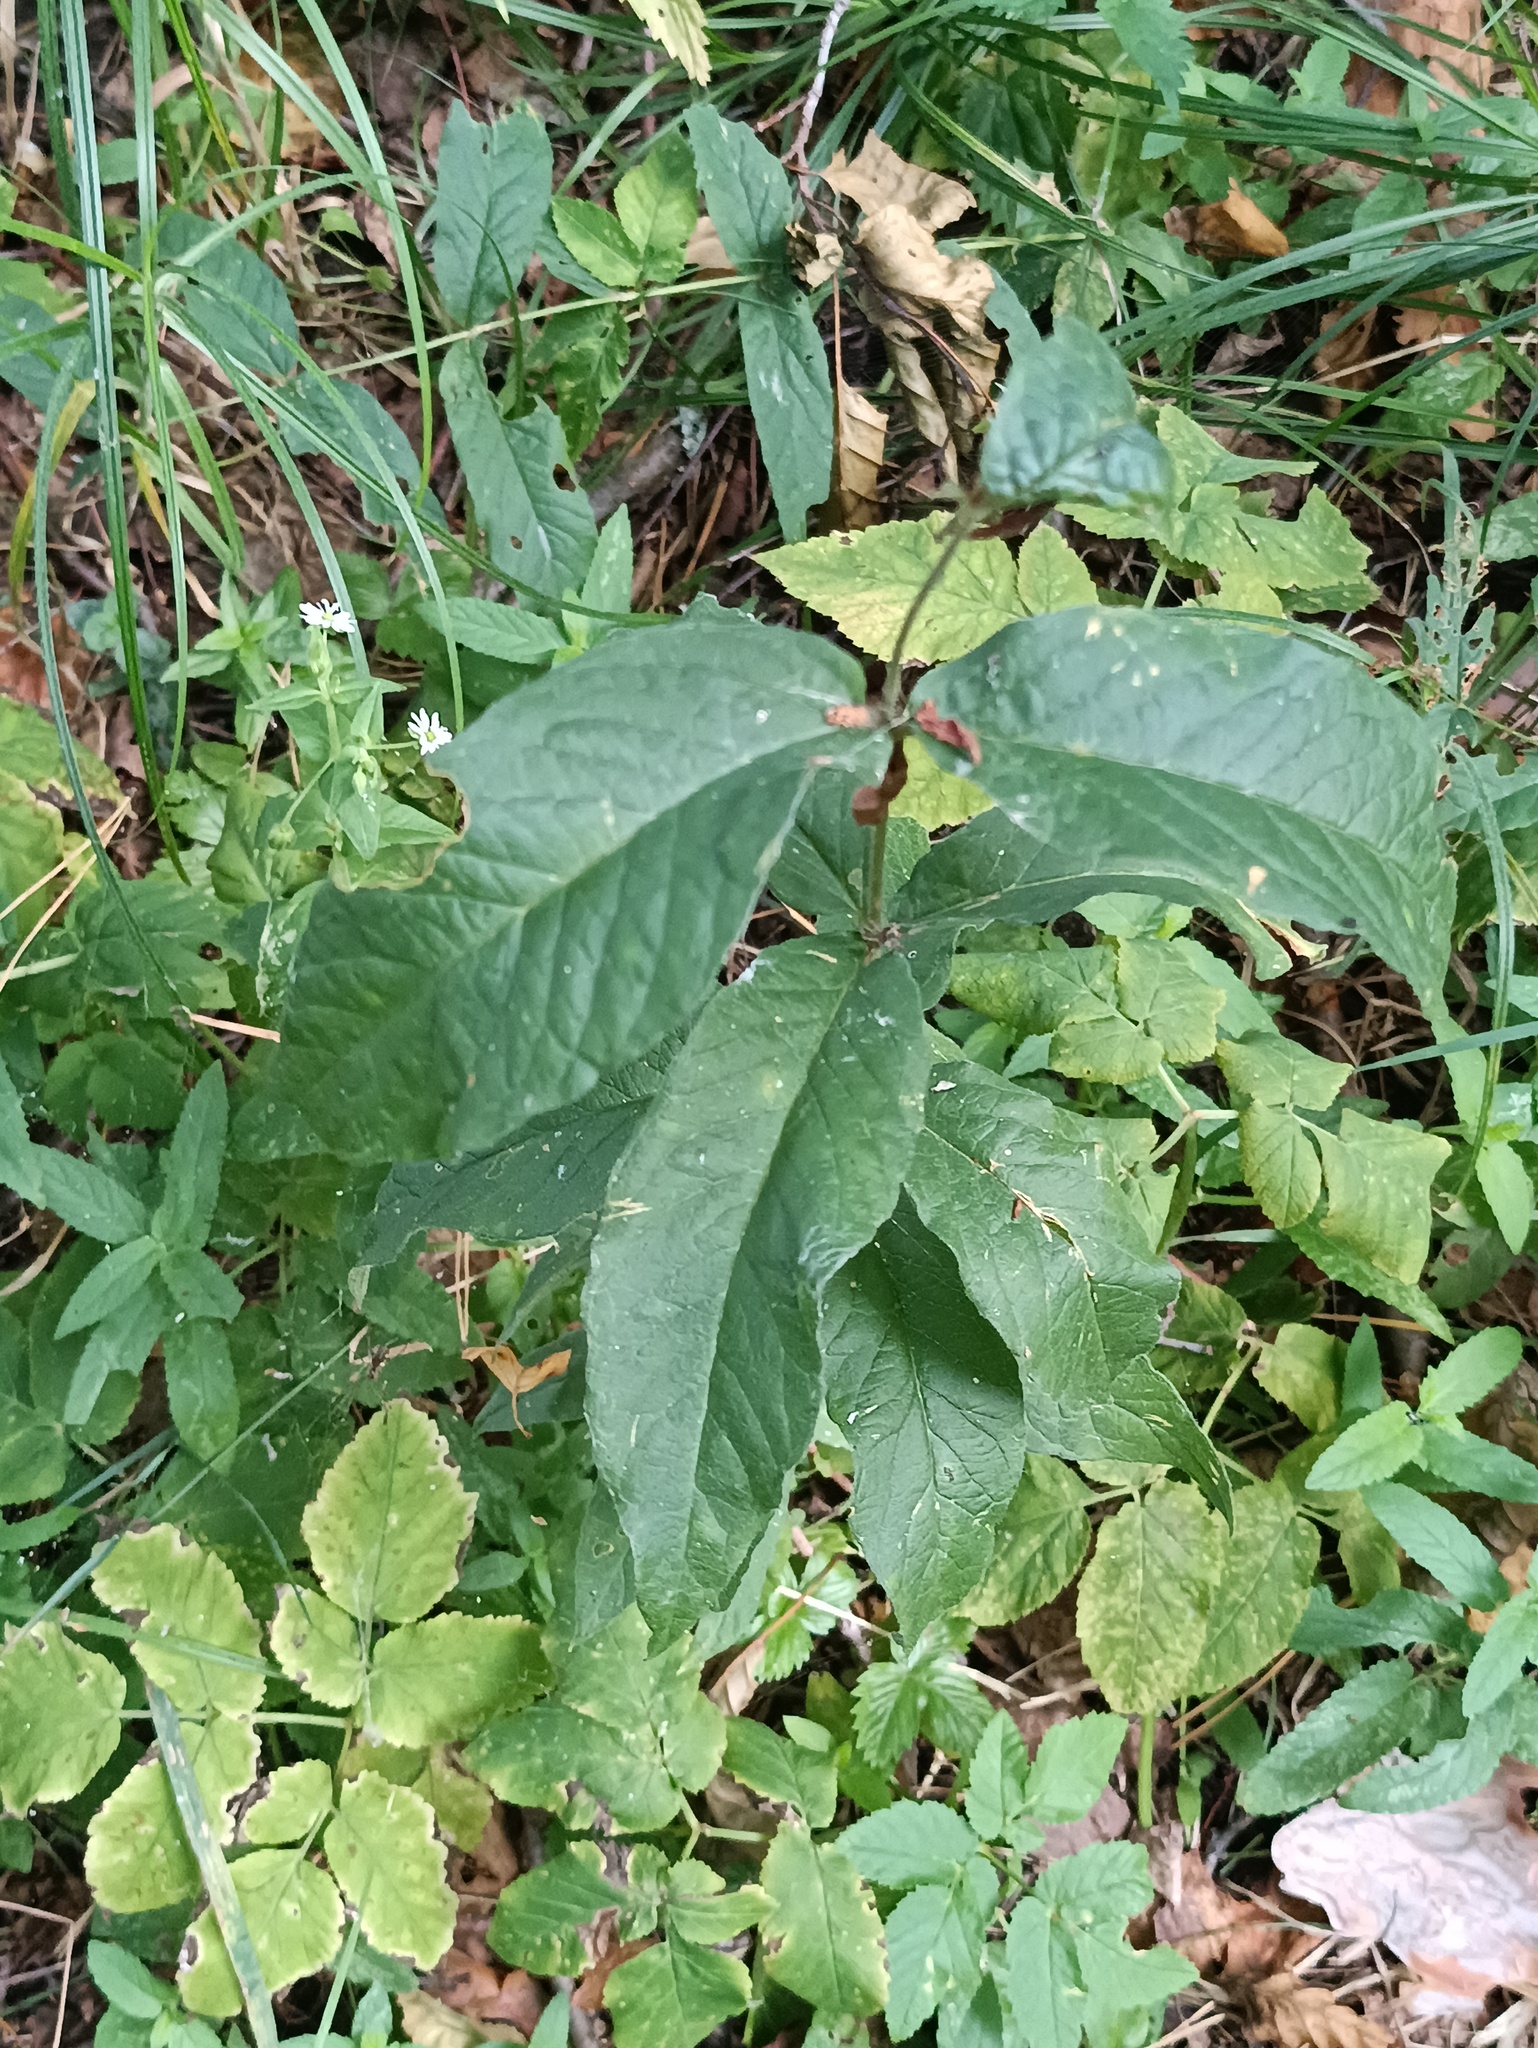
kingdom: Plantae
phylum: Tracheophyta
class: Magnoliopsida
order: Ericales
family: Primulaceae
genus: Lysimachia
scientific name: Lysimachia vulgaris
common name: Yellow loosestrife
